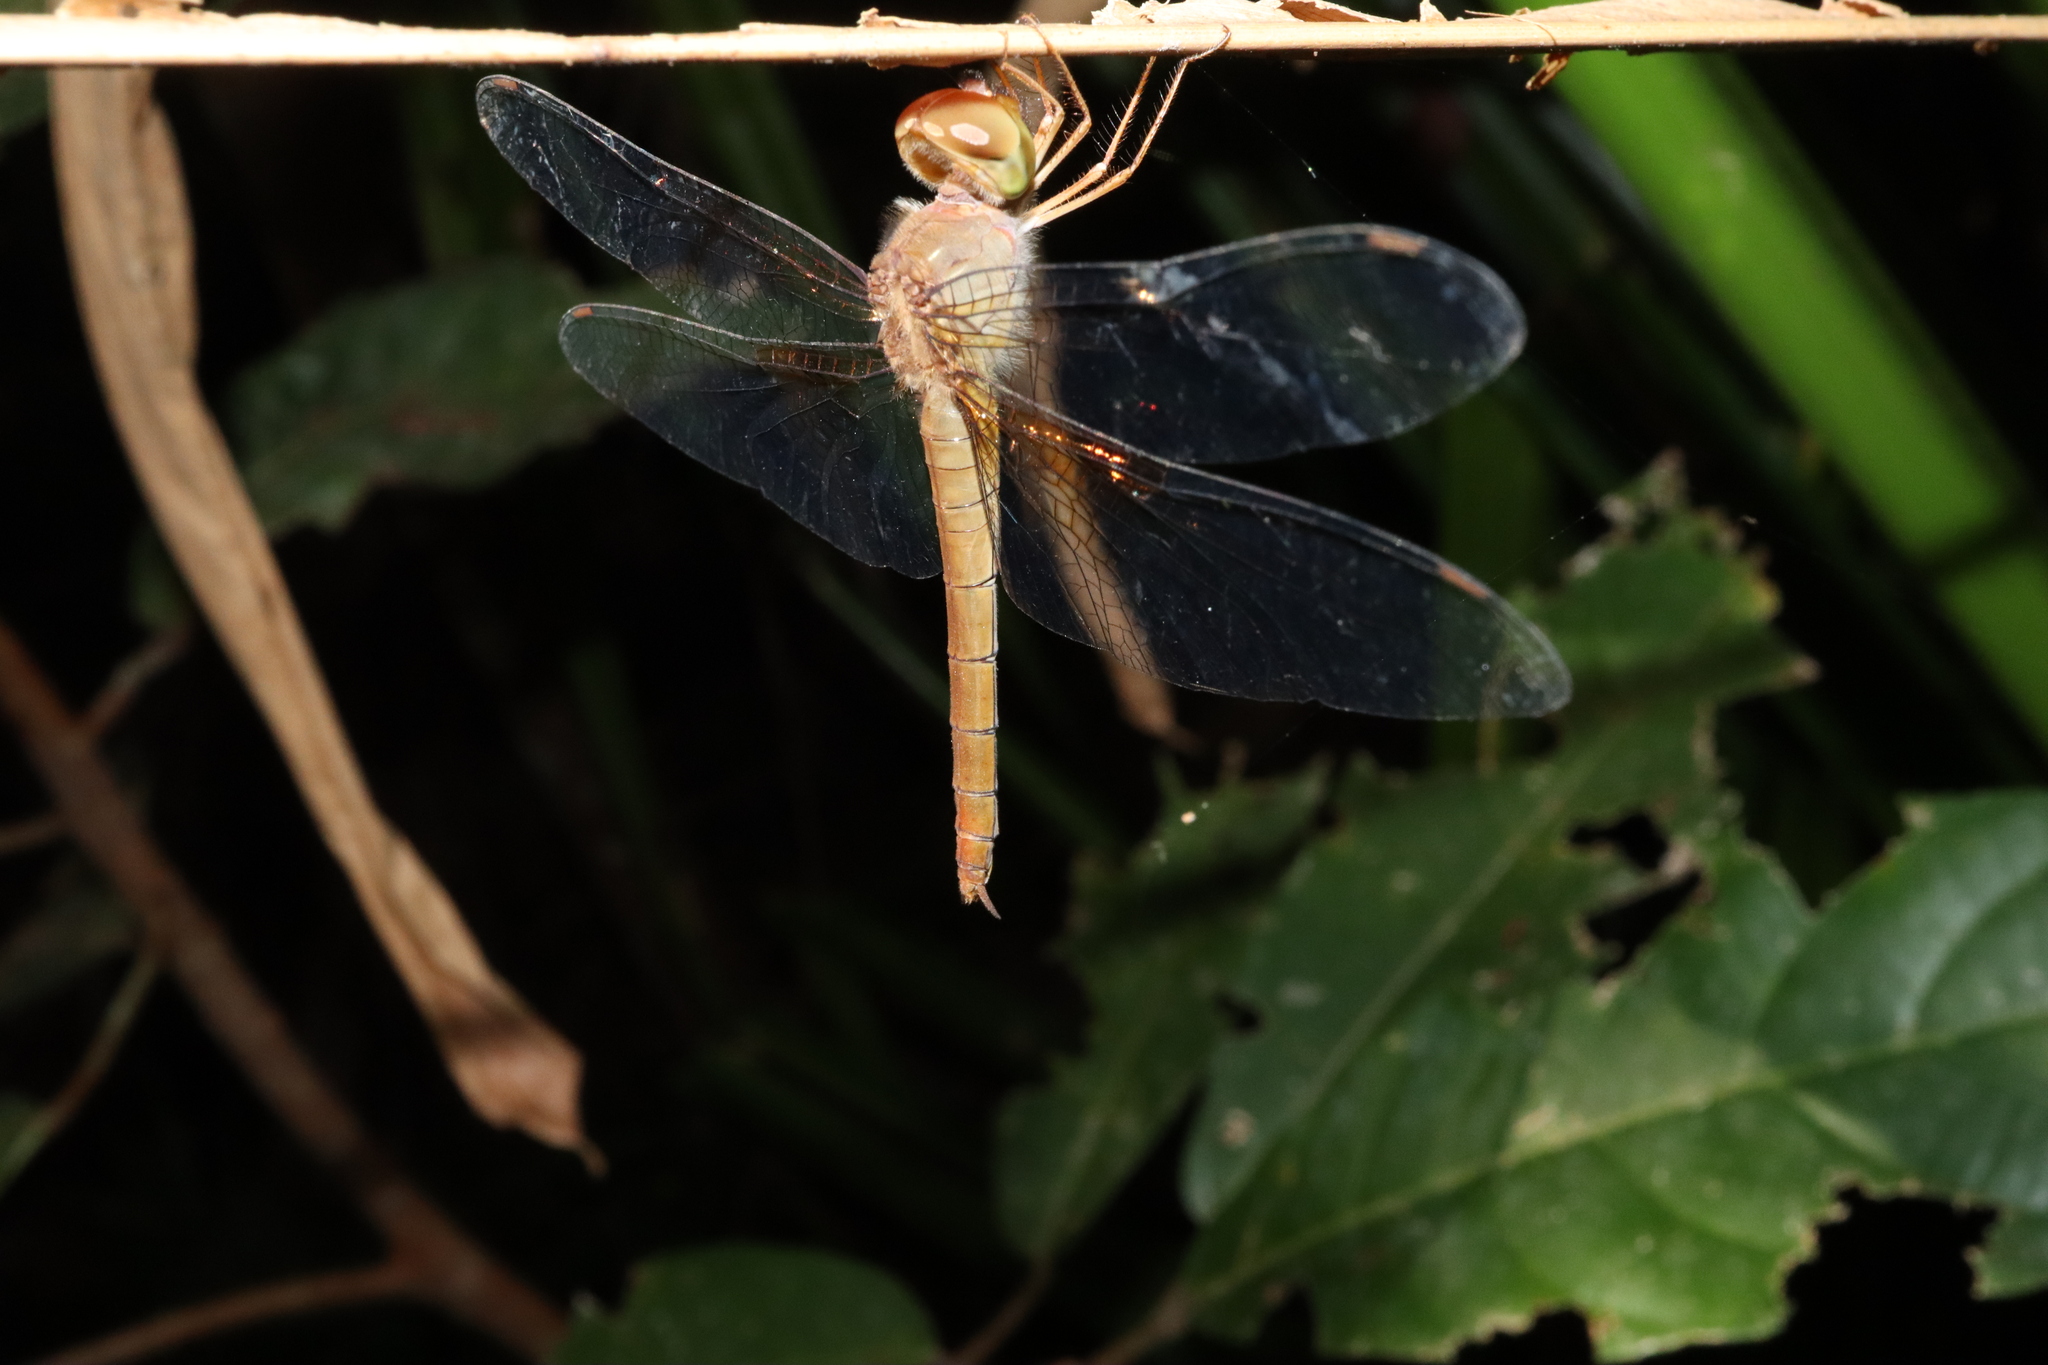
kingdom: Animalia
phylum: Arthropoda
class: Insecta
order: Odonata
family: Libellulidae
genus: Tholymis
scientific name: Tholymis tillarga
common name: Coral-tailed cloud wing
